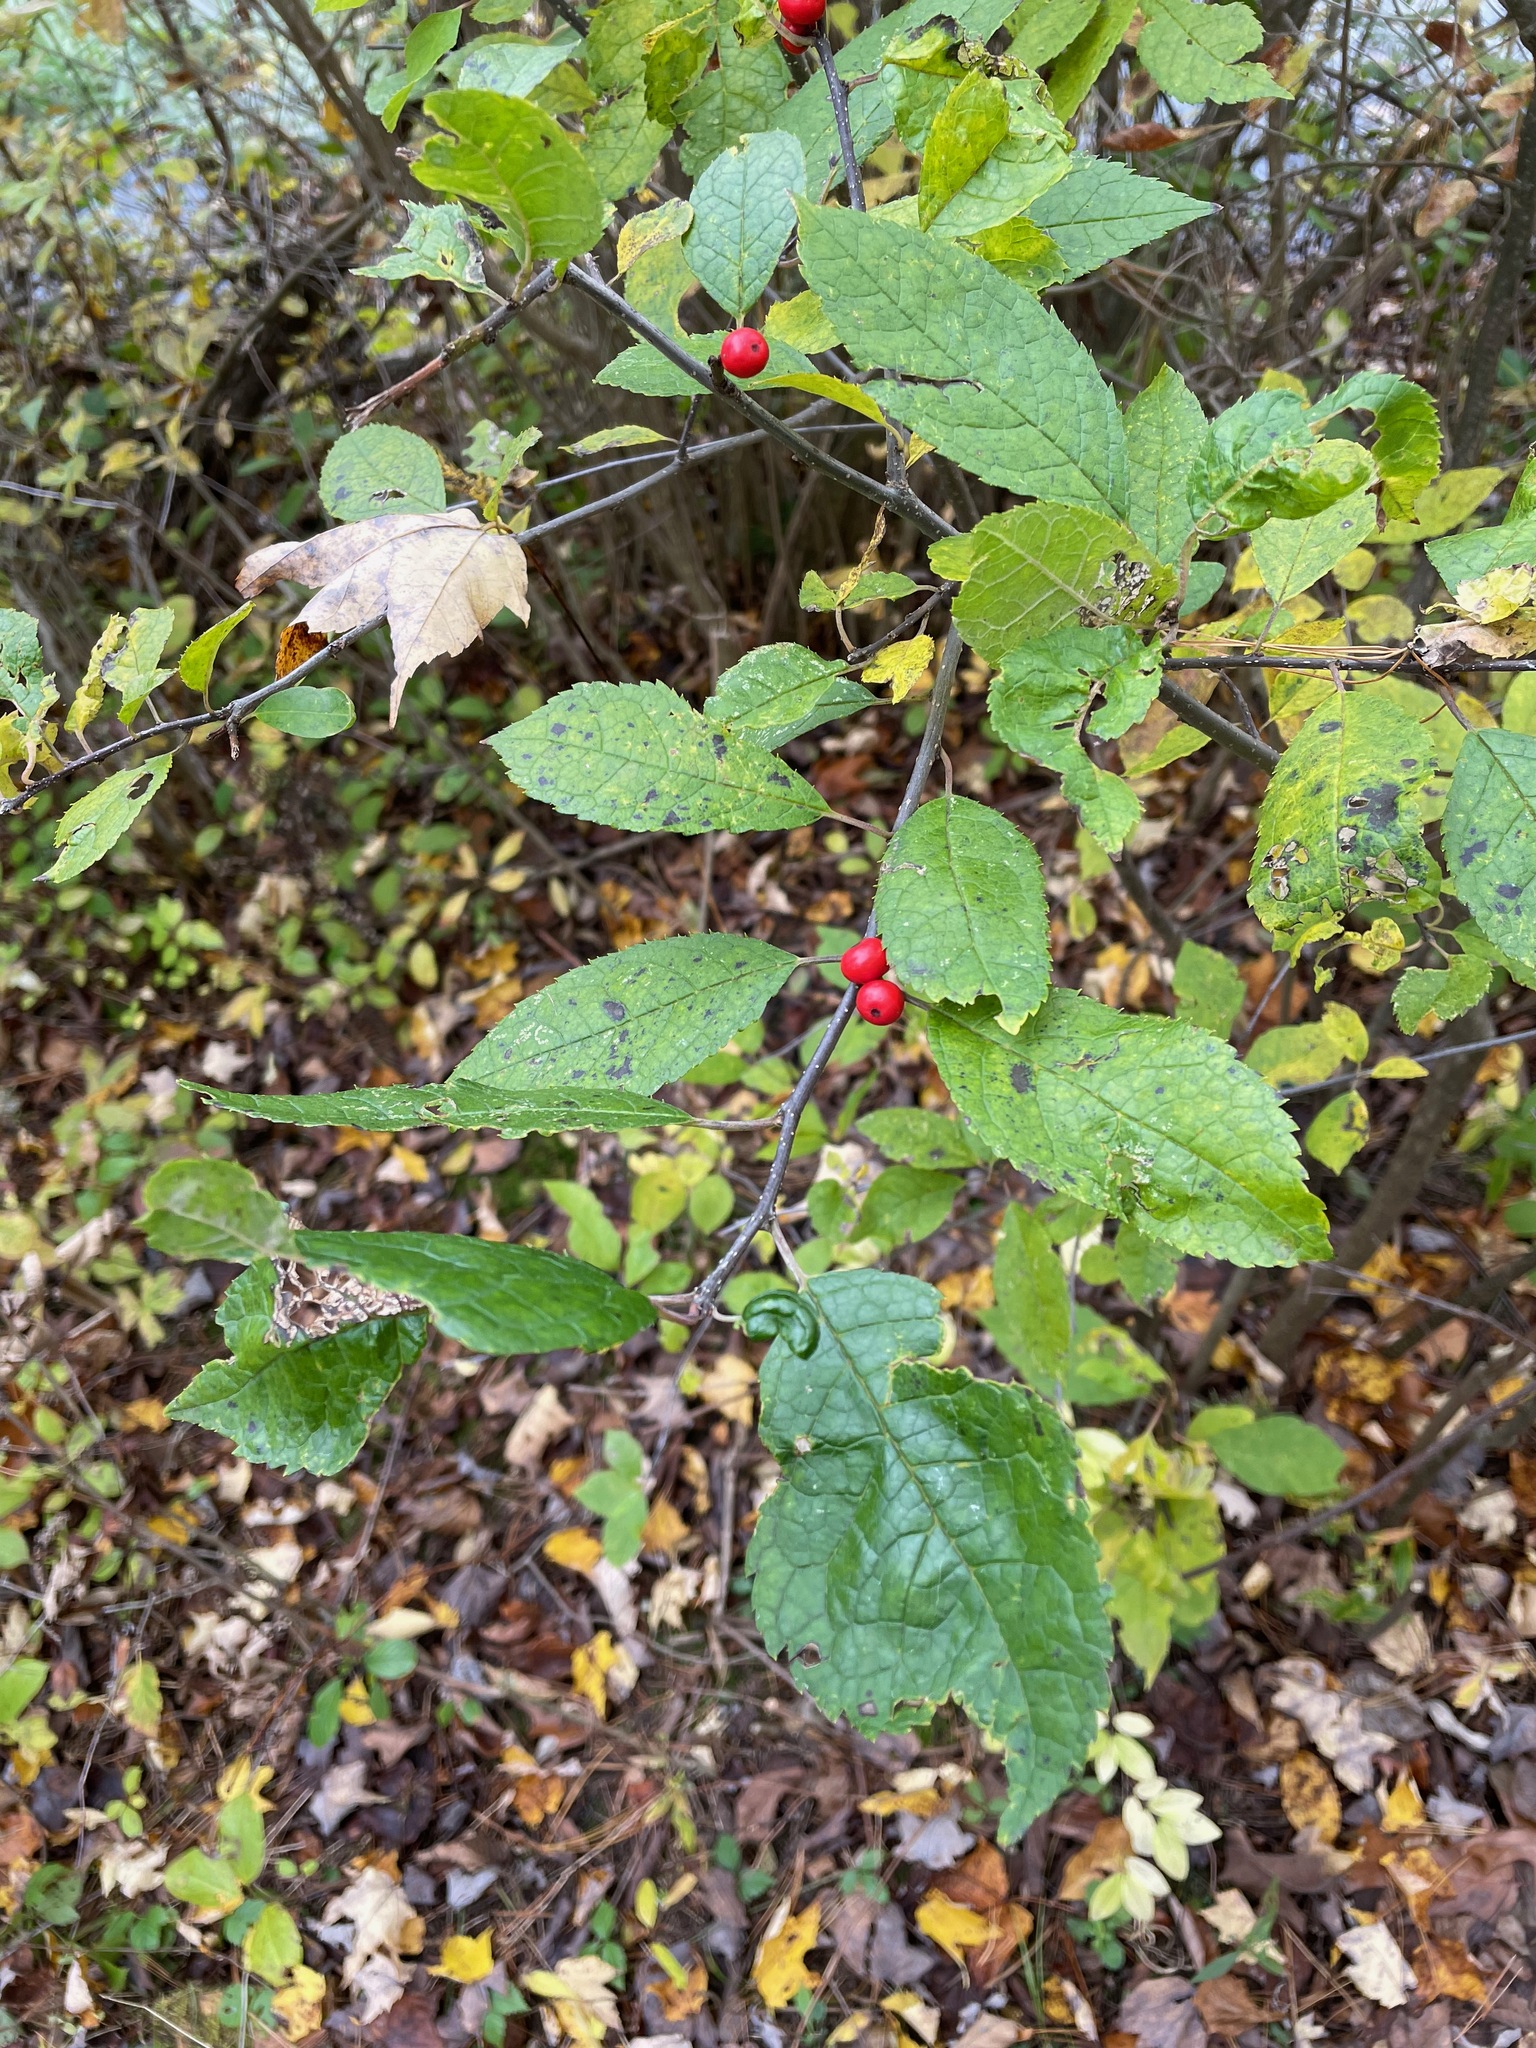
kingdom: Plantae
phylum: Tracheophyta
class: Magnoliopsida
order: Aquifoliales
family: Aquifoliaceae
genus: Ilex
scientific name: Ilex verticillata
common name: Virginia winterberry
